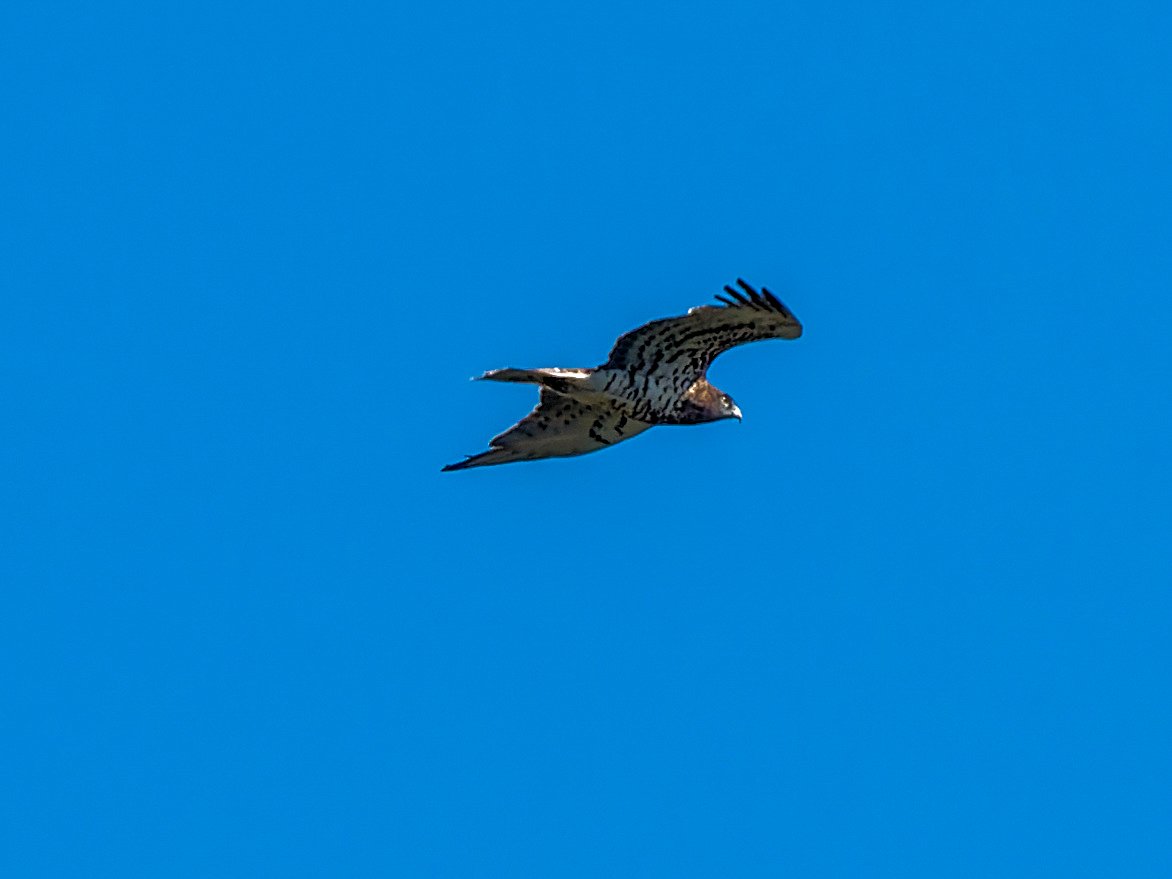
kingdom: Animalia
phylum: Chordata
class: Aves
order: Accipitriformes
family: Accipitridae
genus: Circaetus
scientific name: Circaetus gallicus
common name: Short-toed snake eagle
